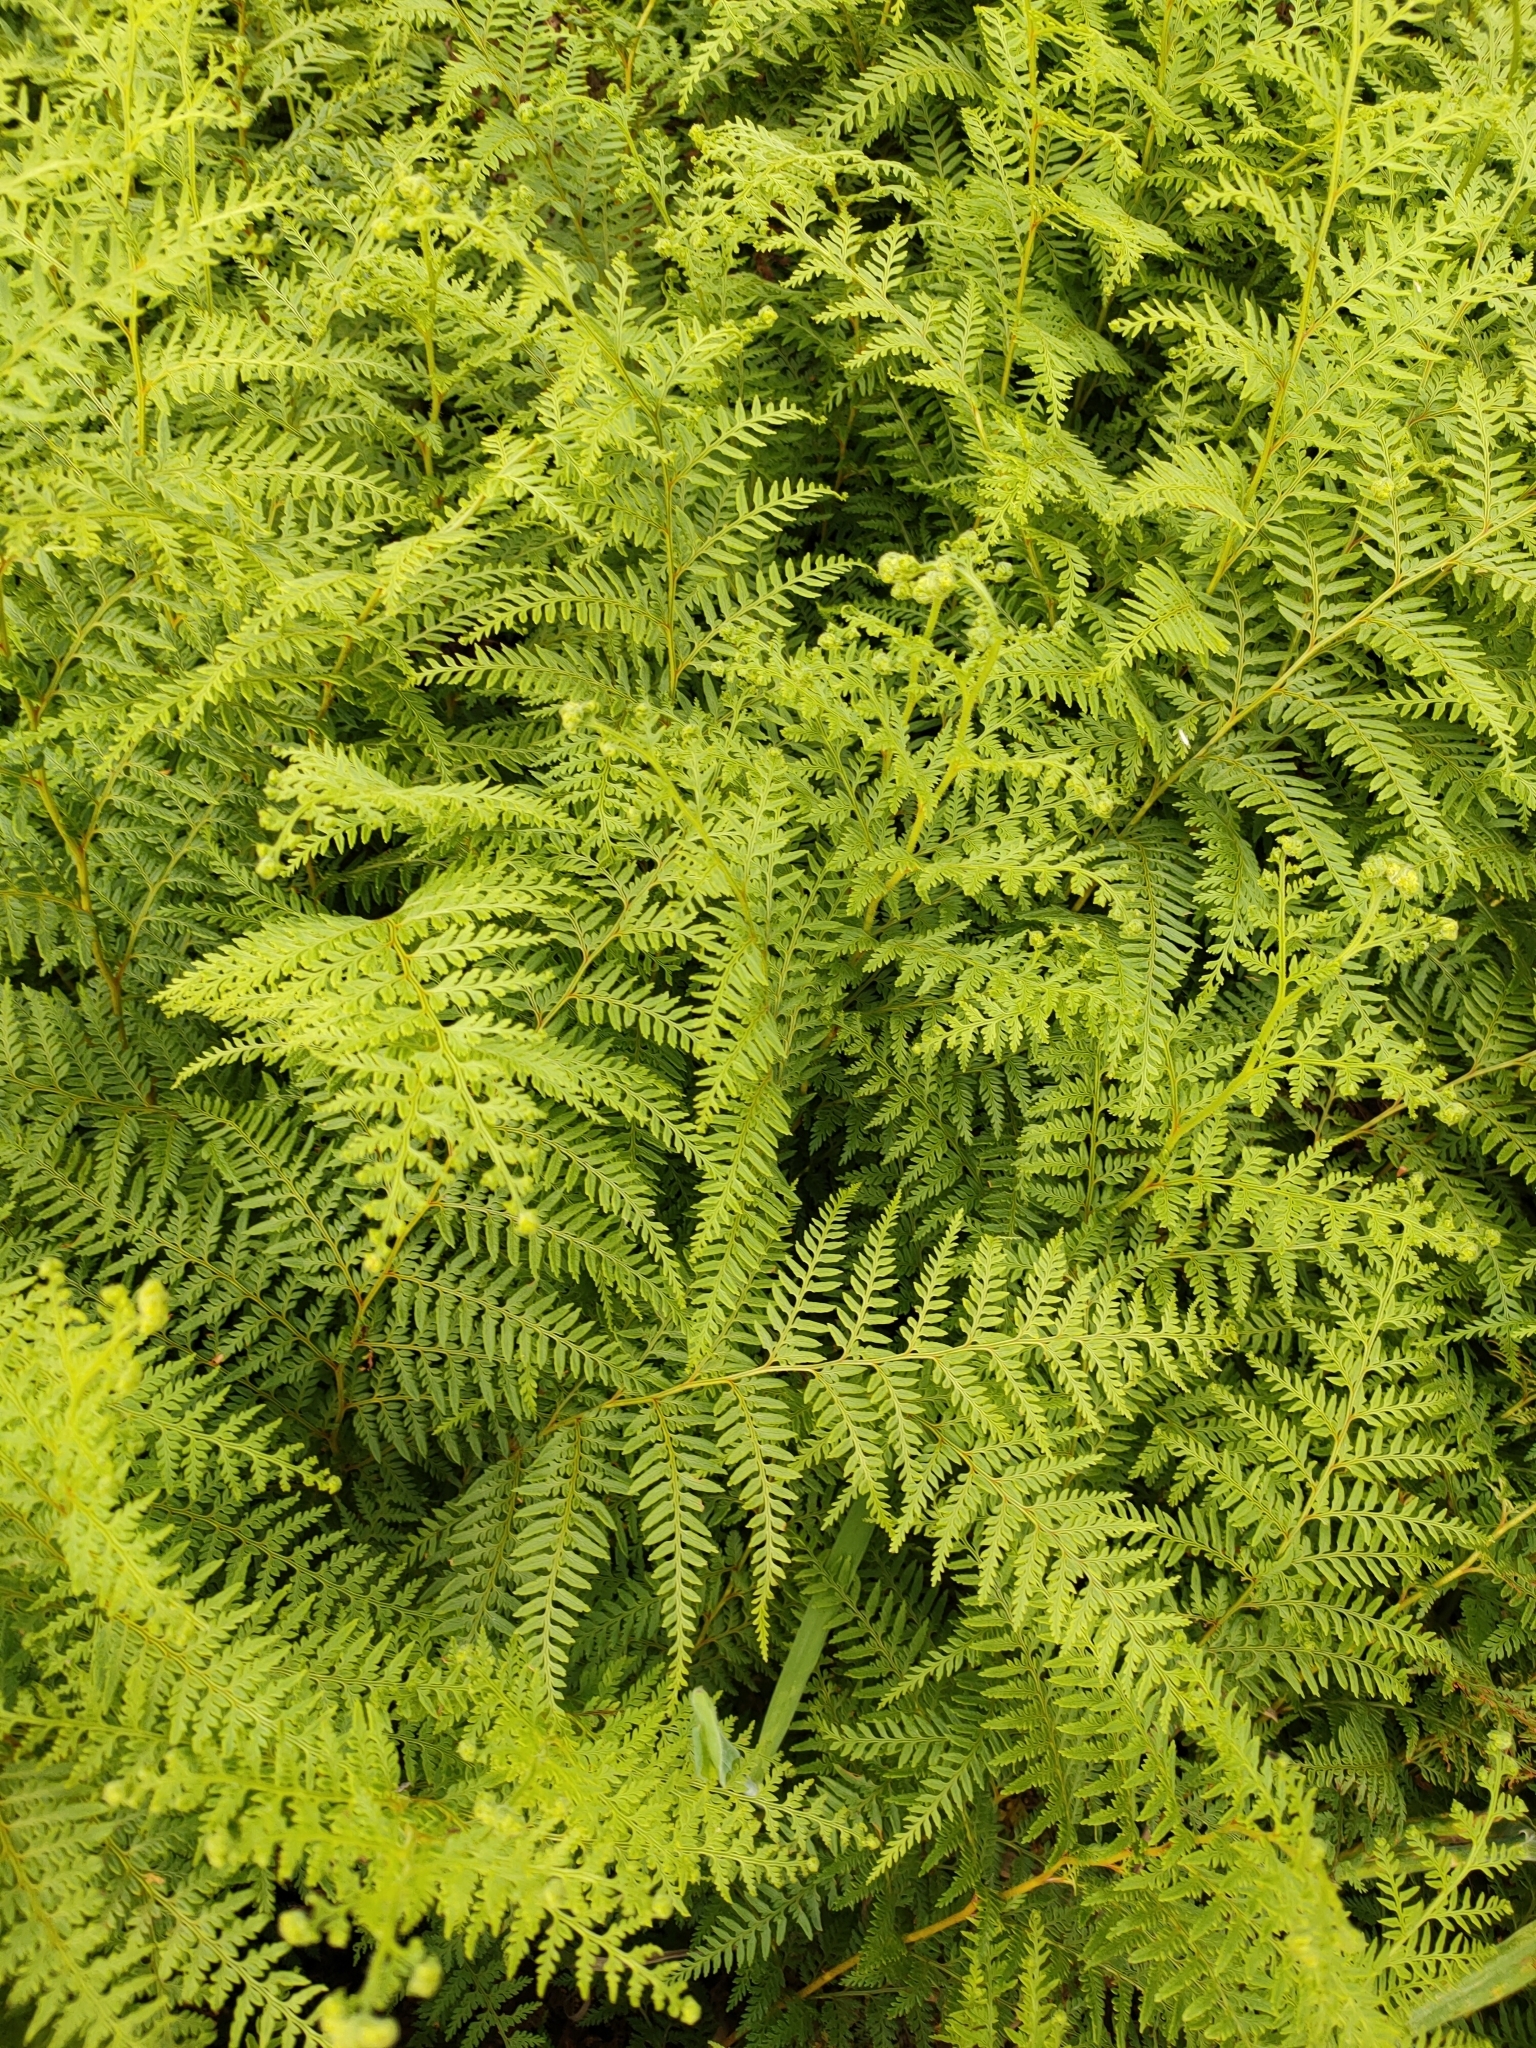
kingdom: Plantae
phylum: Tracheophyta
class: Polypodiopsida
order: Polypodiales
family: Dennstaedtiaceae
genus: Paesia
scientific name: Paesia scaberula
